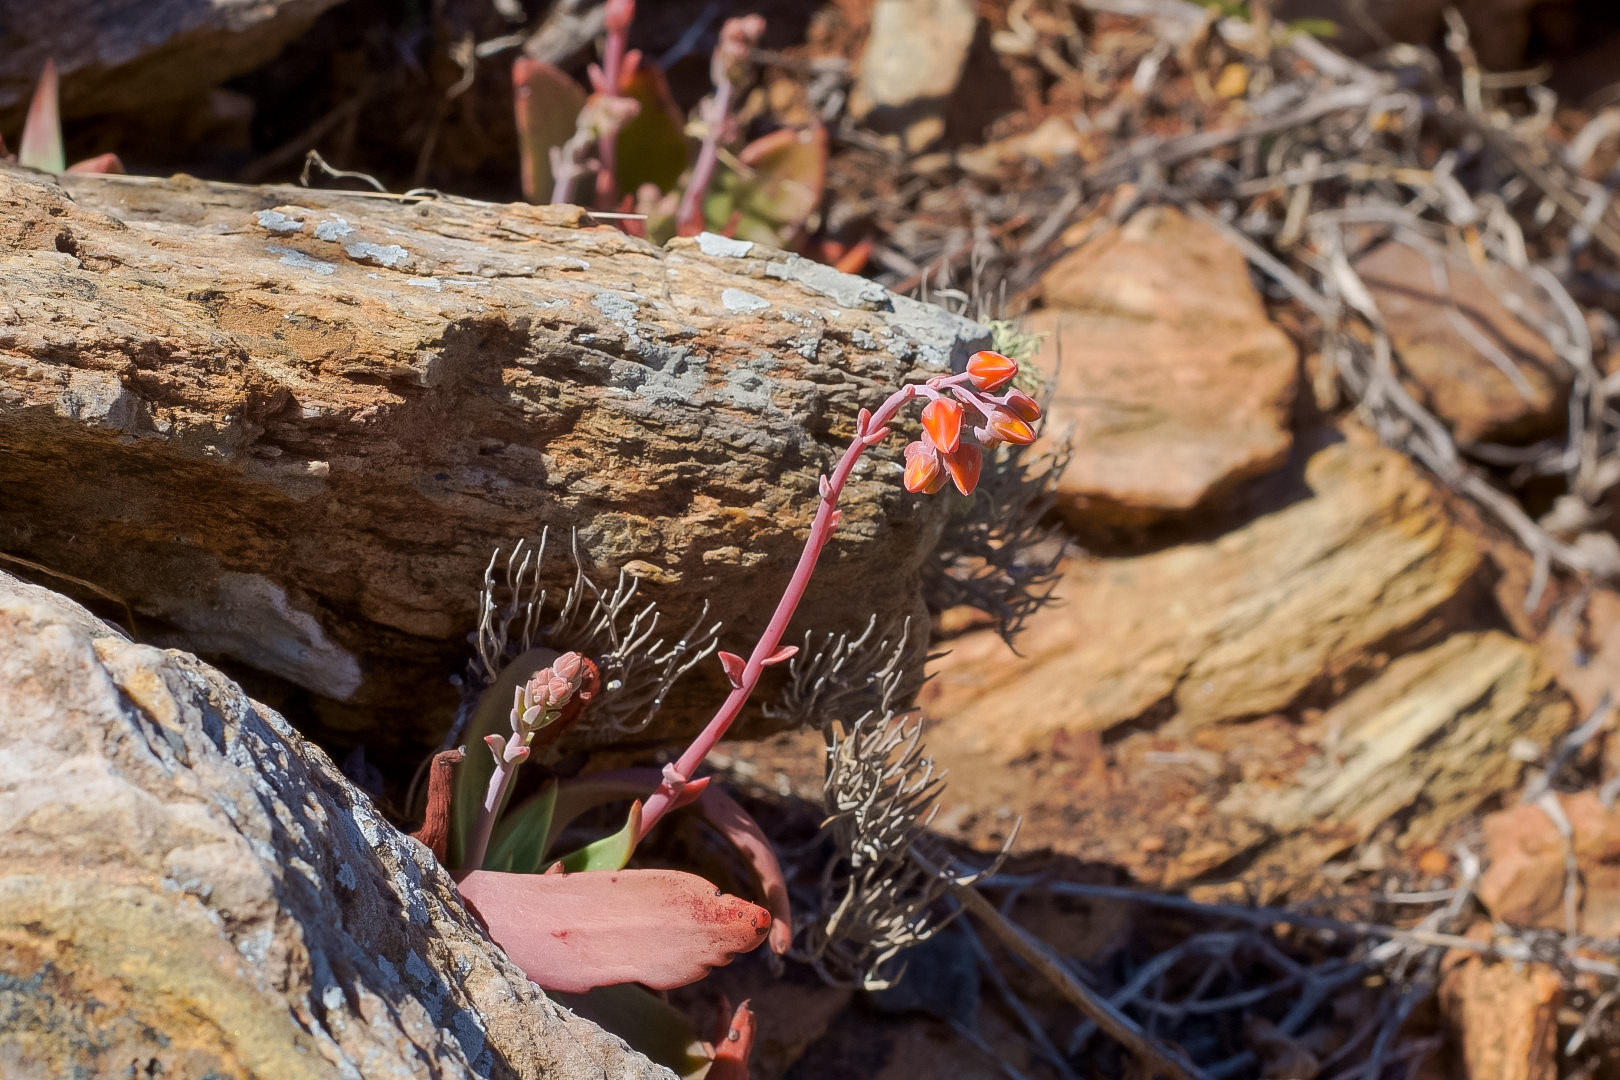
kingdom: Plantae
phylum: Tracheophyta
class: Magnoliopsida
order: Saxifragales
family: Crassulaceae
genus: Dudleya
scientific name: Dudleya nubigena
